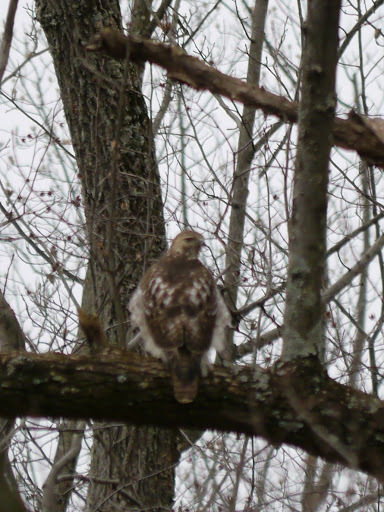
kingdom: Animalia
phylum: Chordata
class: Aves
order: Accipitriformes
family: Accipitridae
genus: Buteo
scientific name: Buteo jamaicensis
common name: Red-tailed hawk
